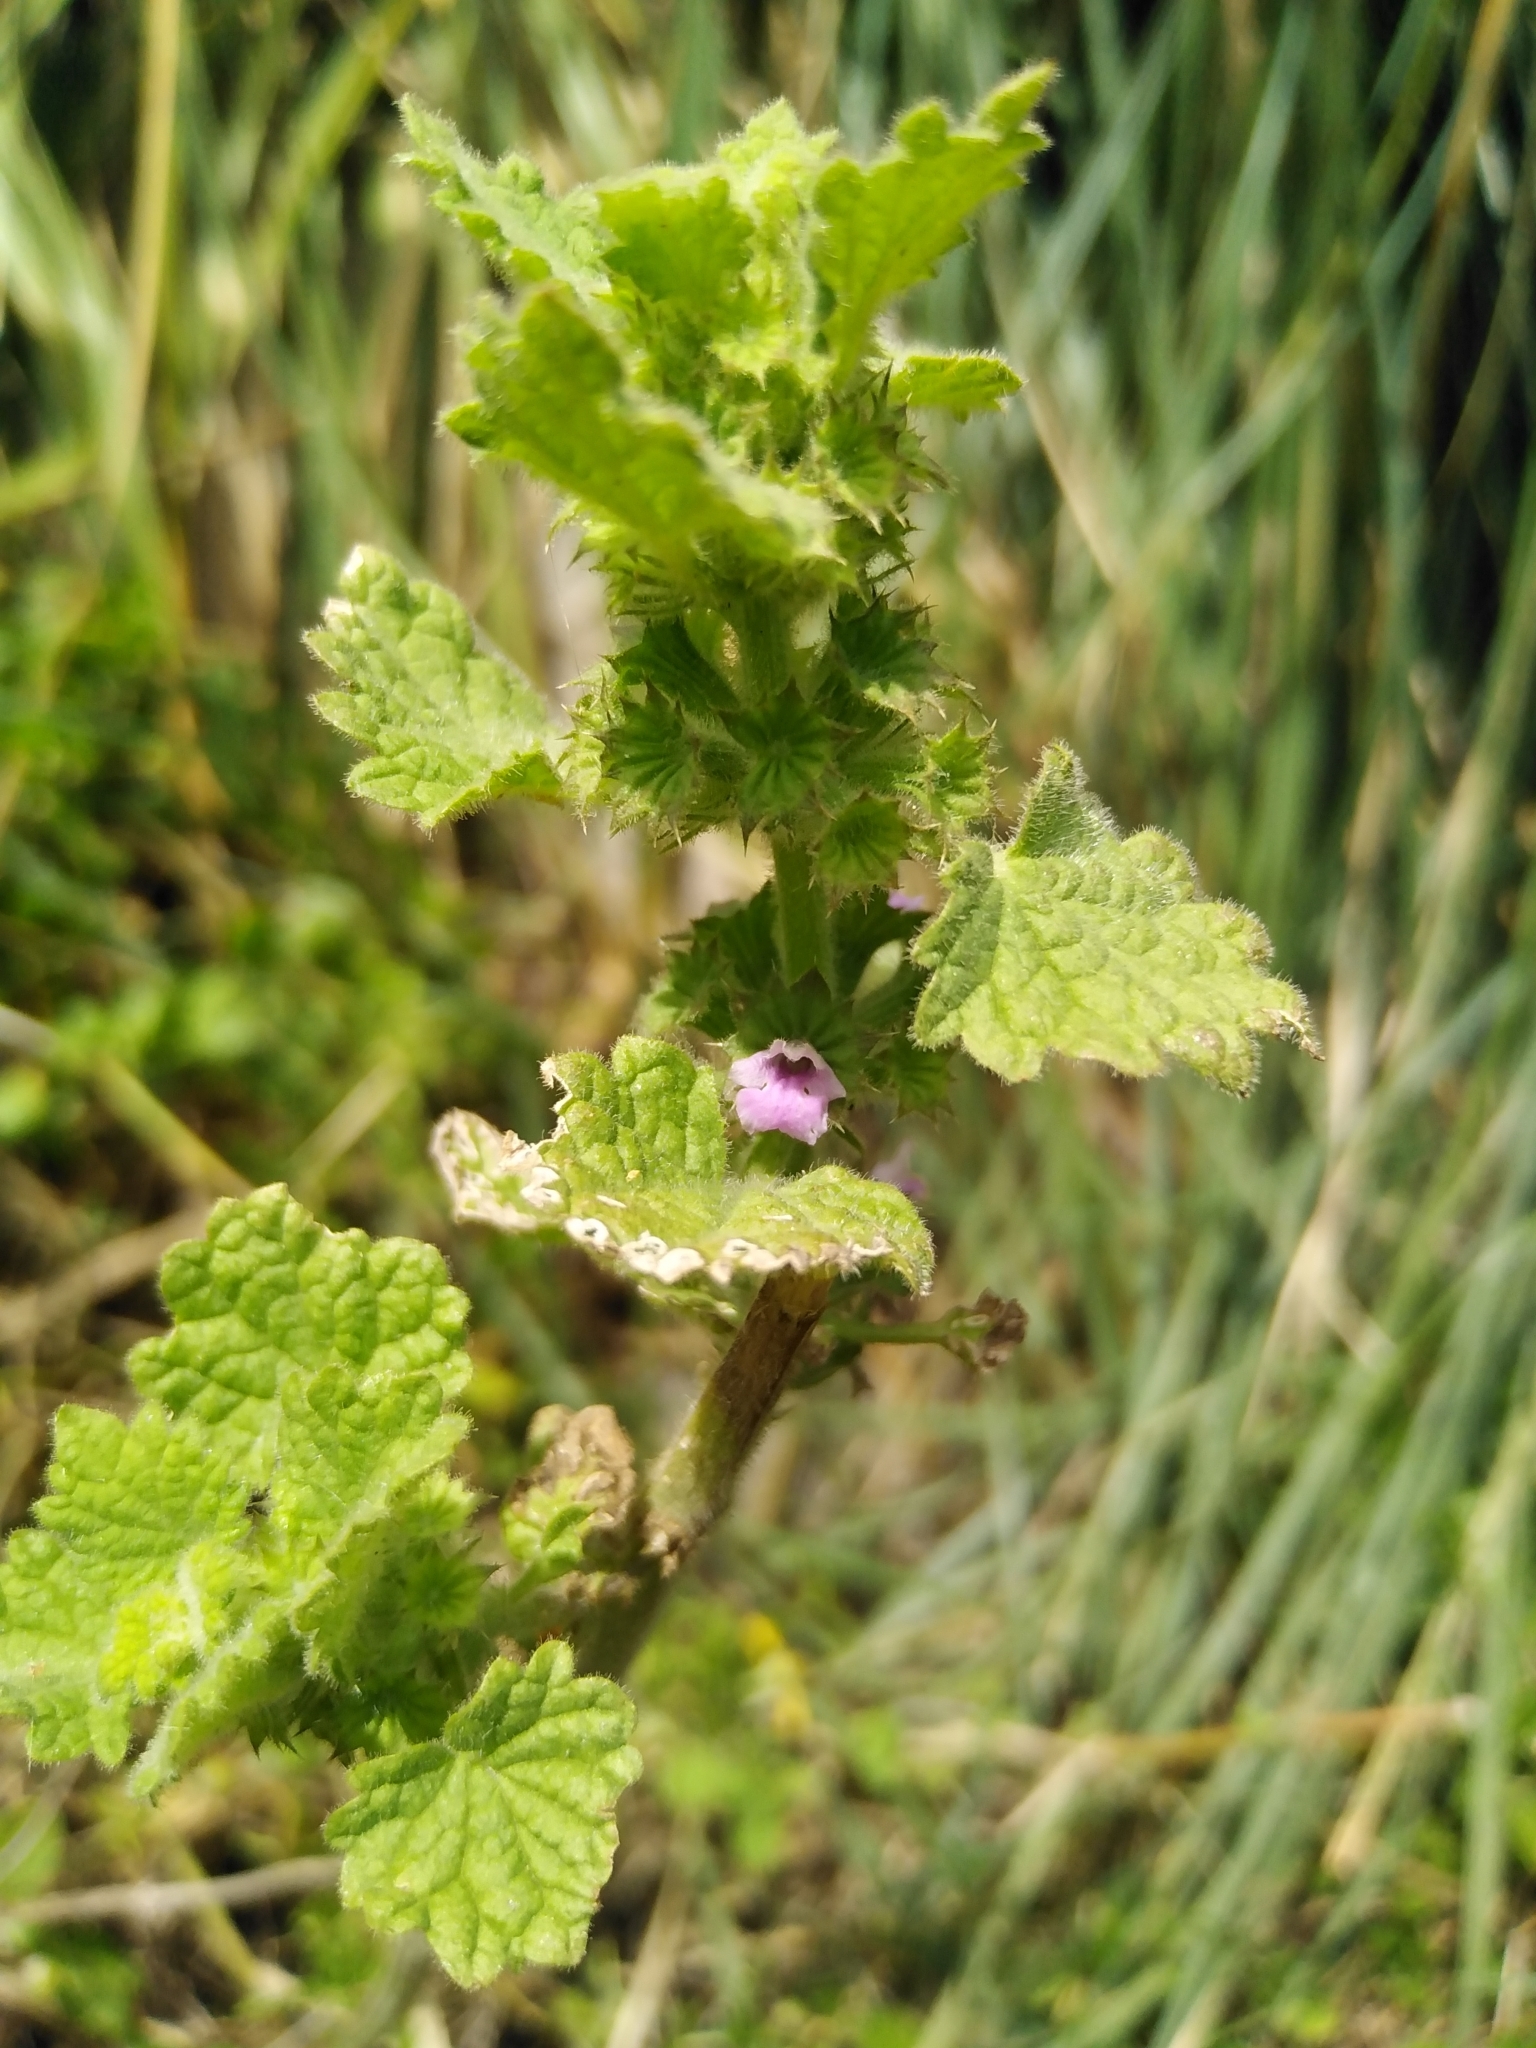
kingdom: Plantae
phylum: Tracheophyta
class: Magnoliopsida
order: Lamiales
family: Lamiaceae
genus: Pseudodictamnus
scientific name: Pseudodictamnus africanus
